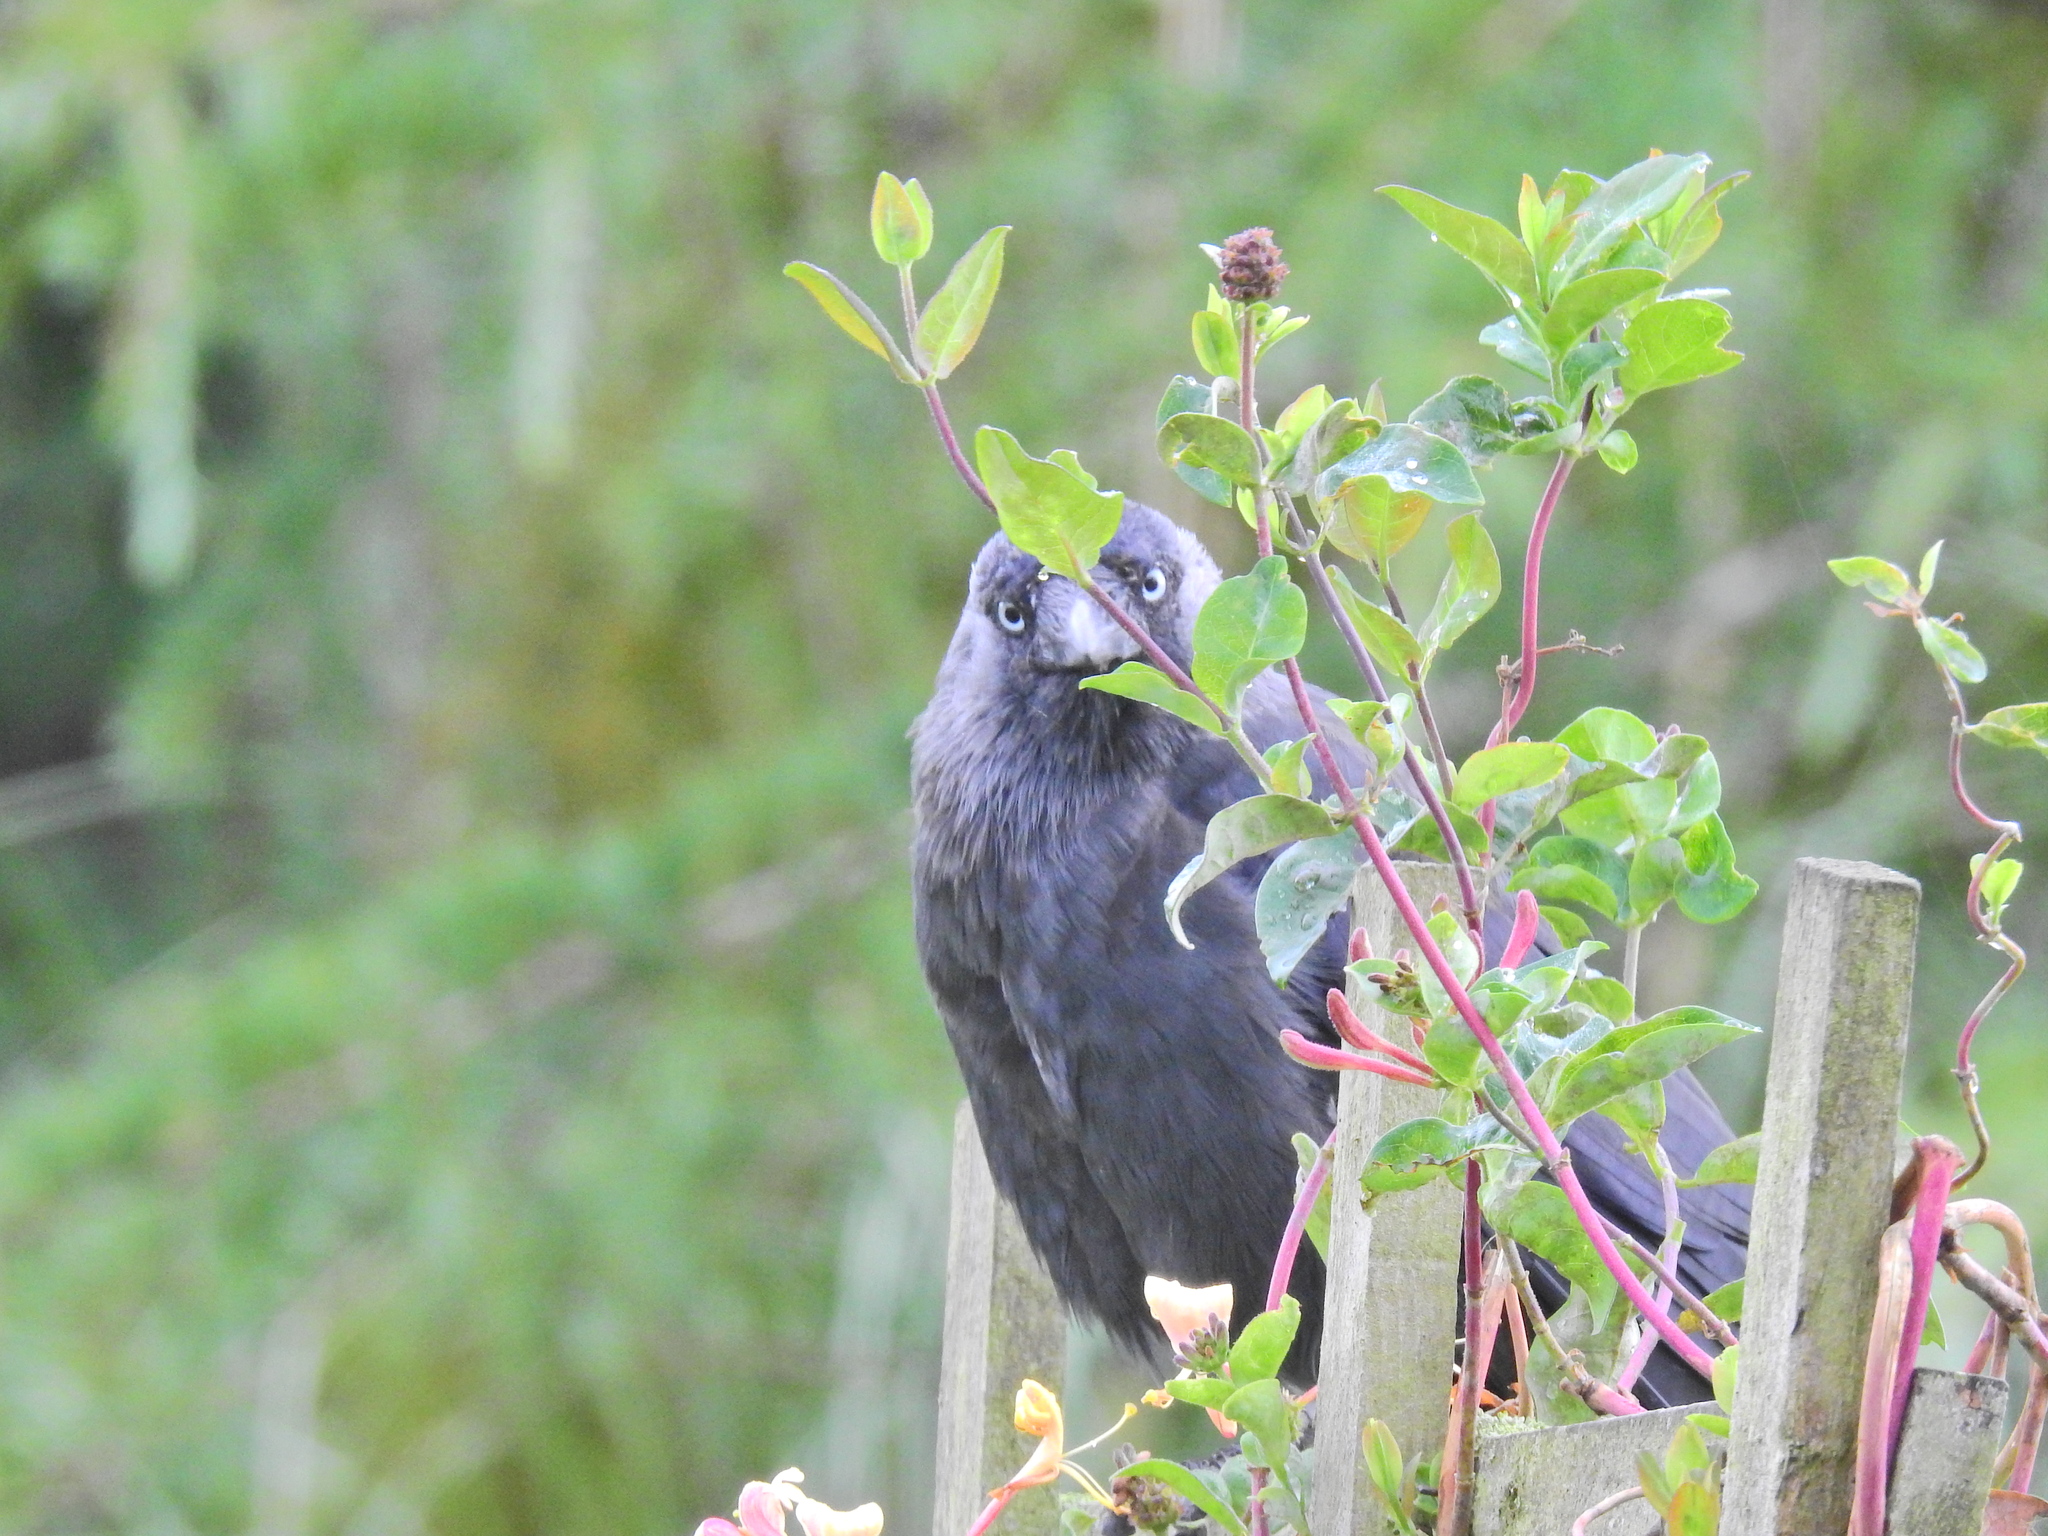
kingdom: Animalia
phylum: Chordata
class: Aves
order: Passeriformes
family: Corvidae
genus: Coloeus
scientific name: Coloeus monedula
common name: Western jackdaw
